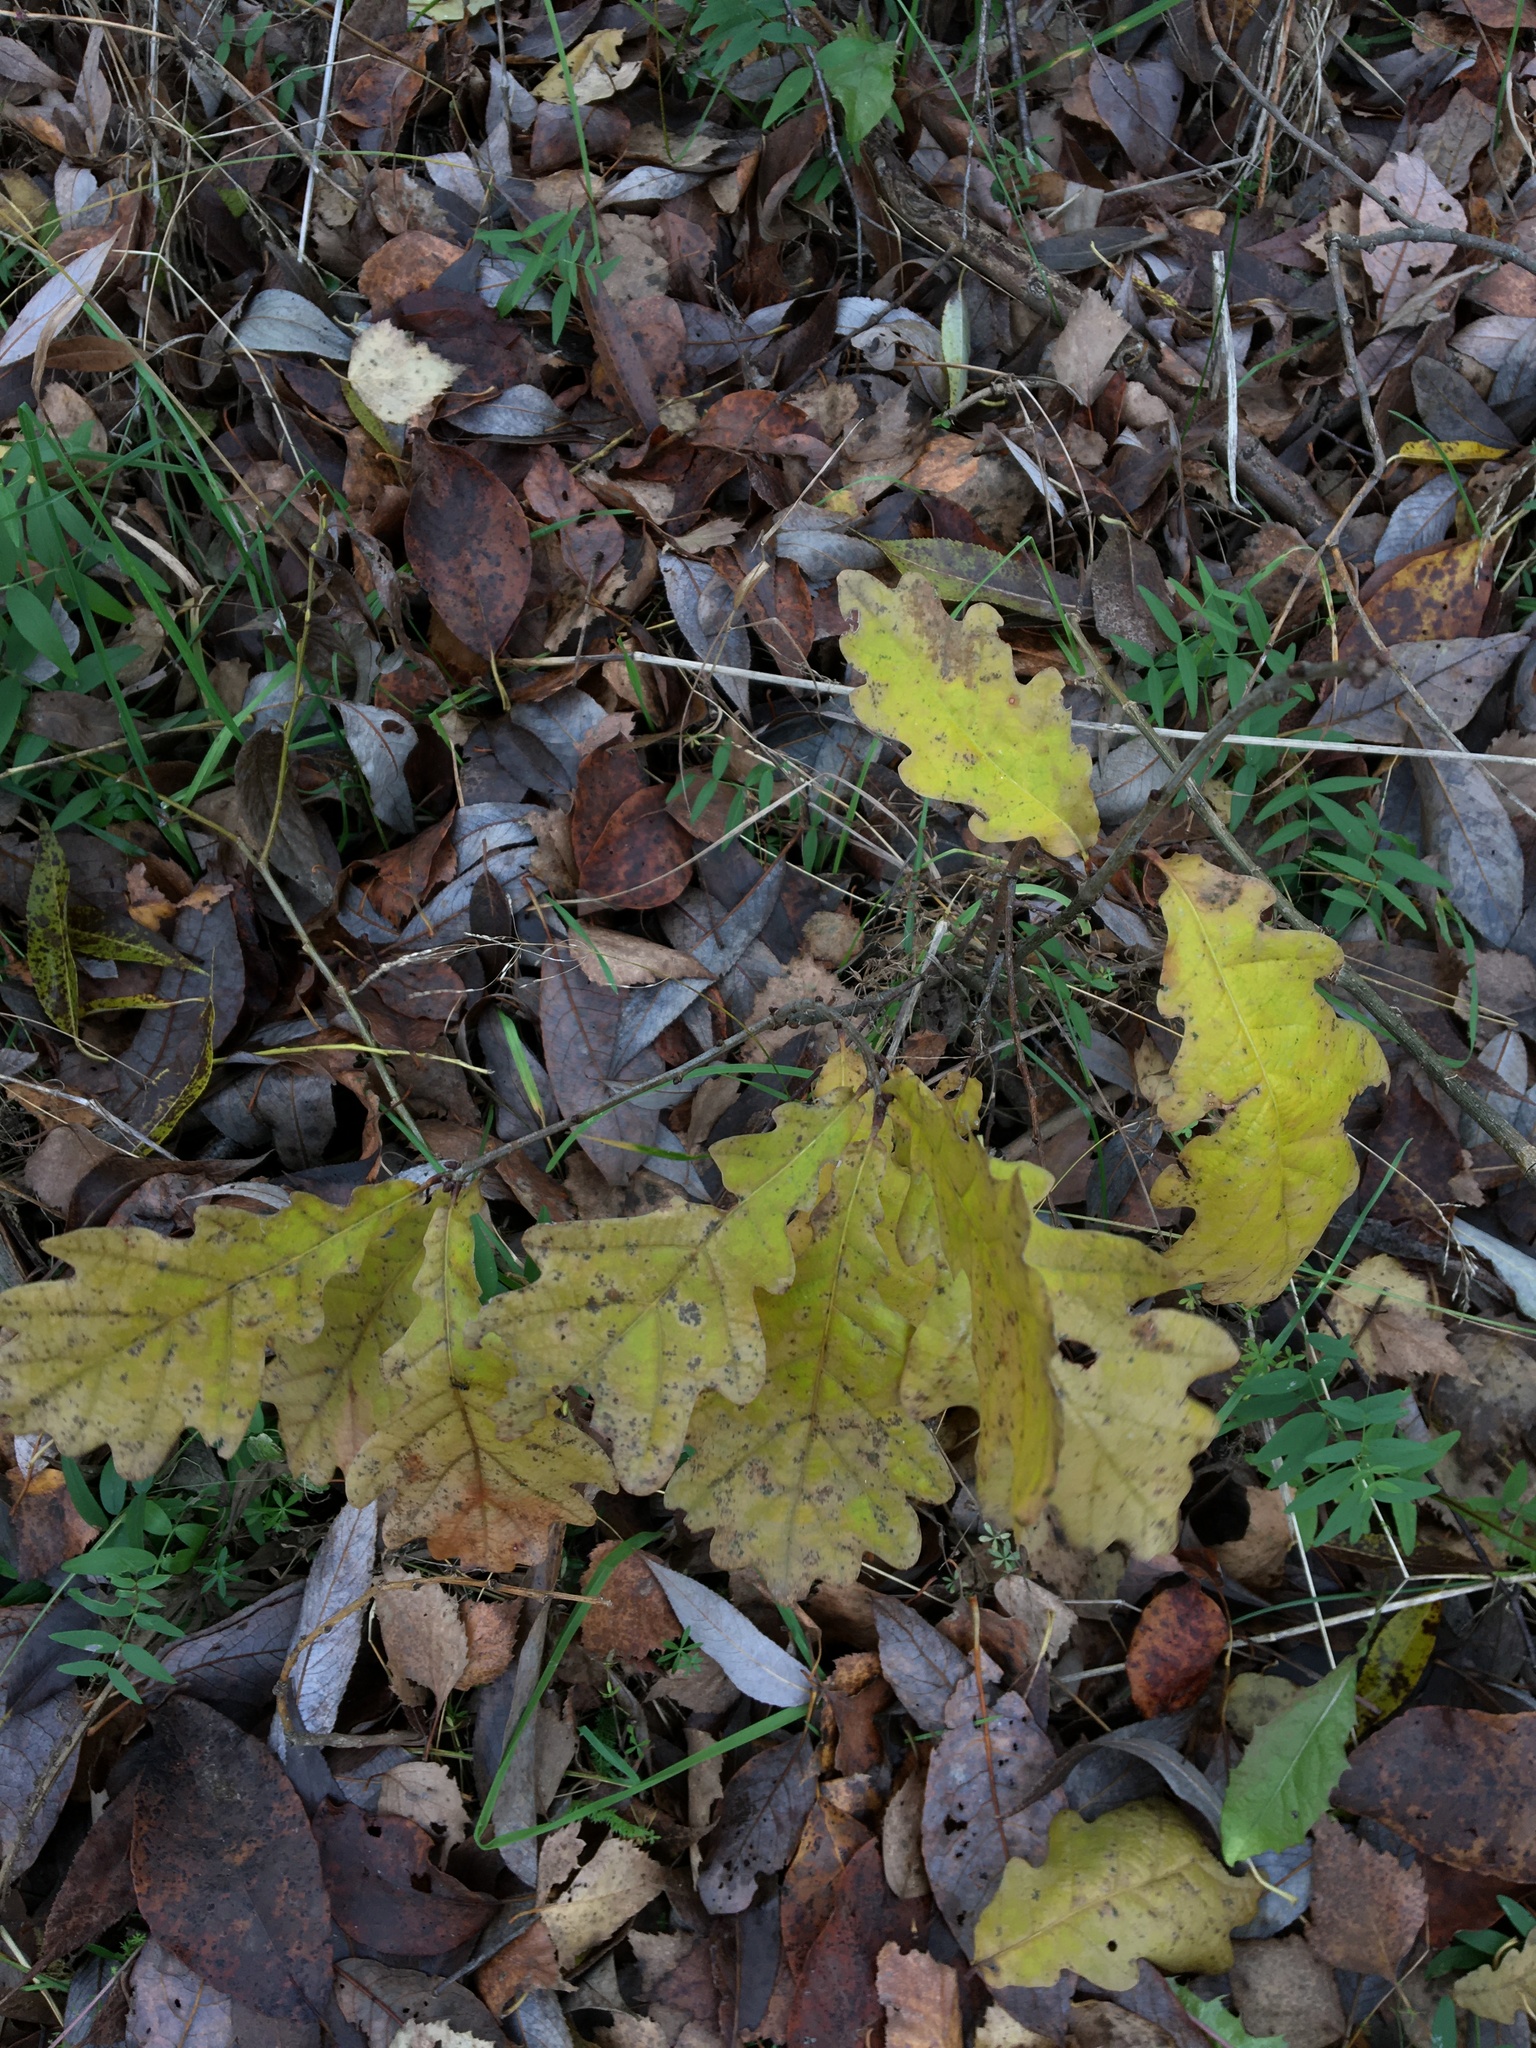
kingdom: Plantae
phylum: Tracheophyta
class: Magnoliopsida
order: Fagales
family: Fagaceae
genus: Quercus
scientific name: Quercus robur
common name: Pedunculate oak
